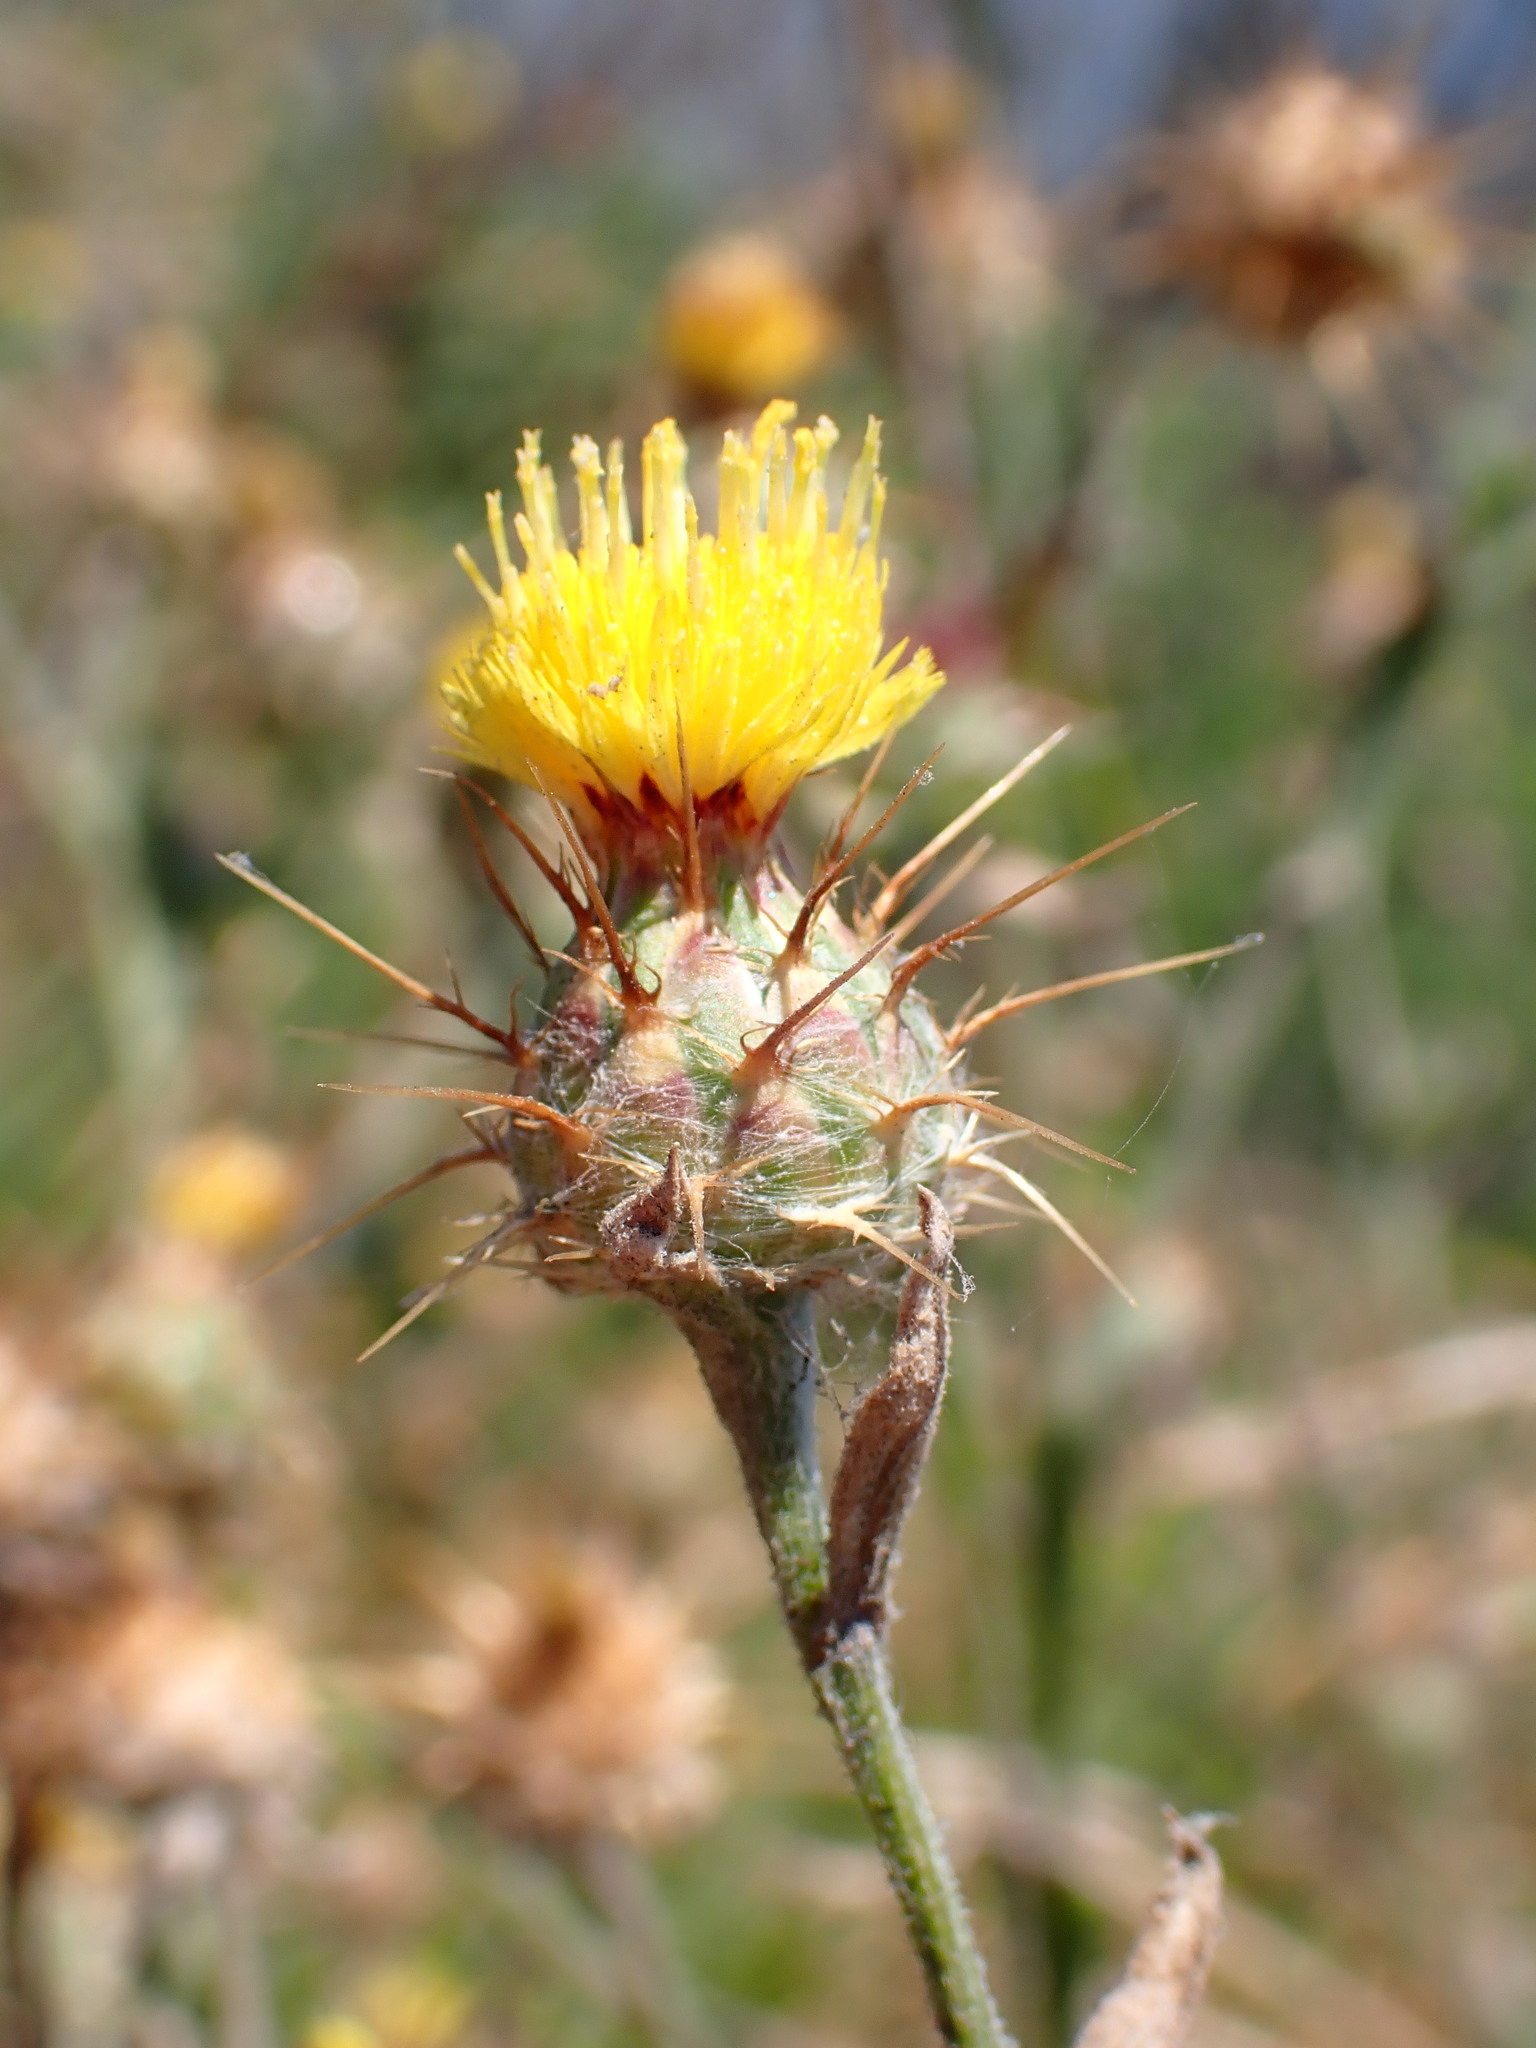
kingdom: Plantae
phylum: Tracheophyta
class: Magnoliopsida
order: Asterales
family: Asteraceae
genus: Centaurea
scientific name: Centaurea melitensis
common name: Maltese star-thistle
